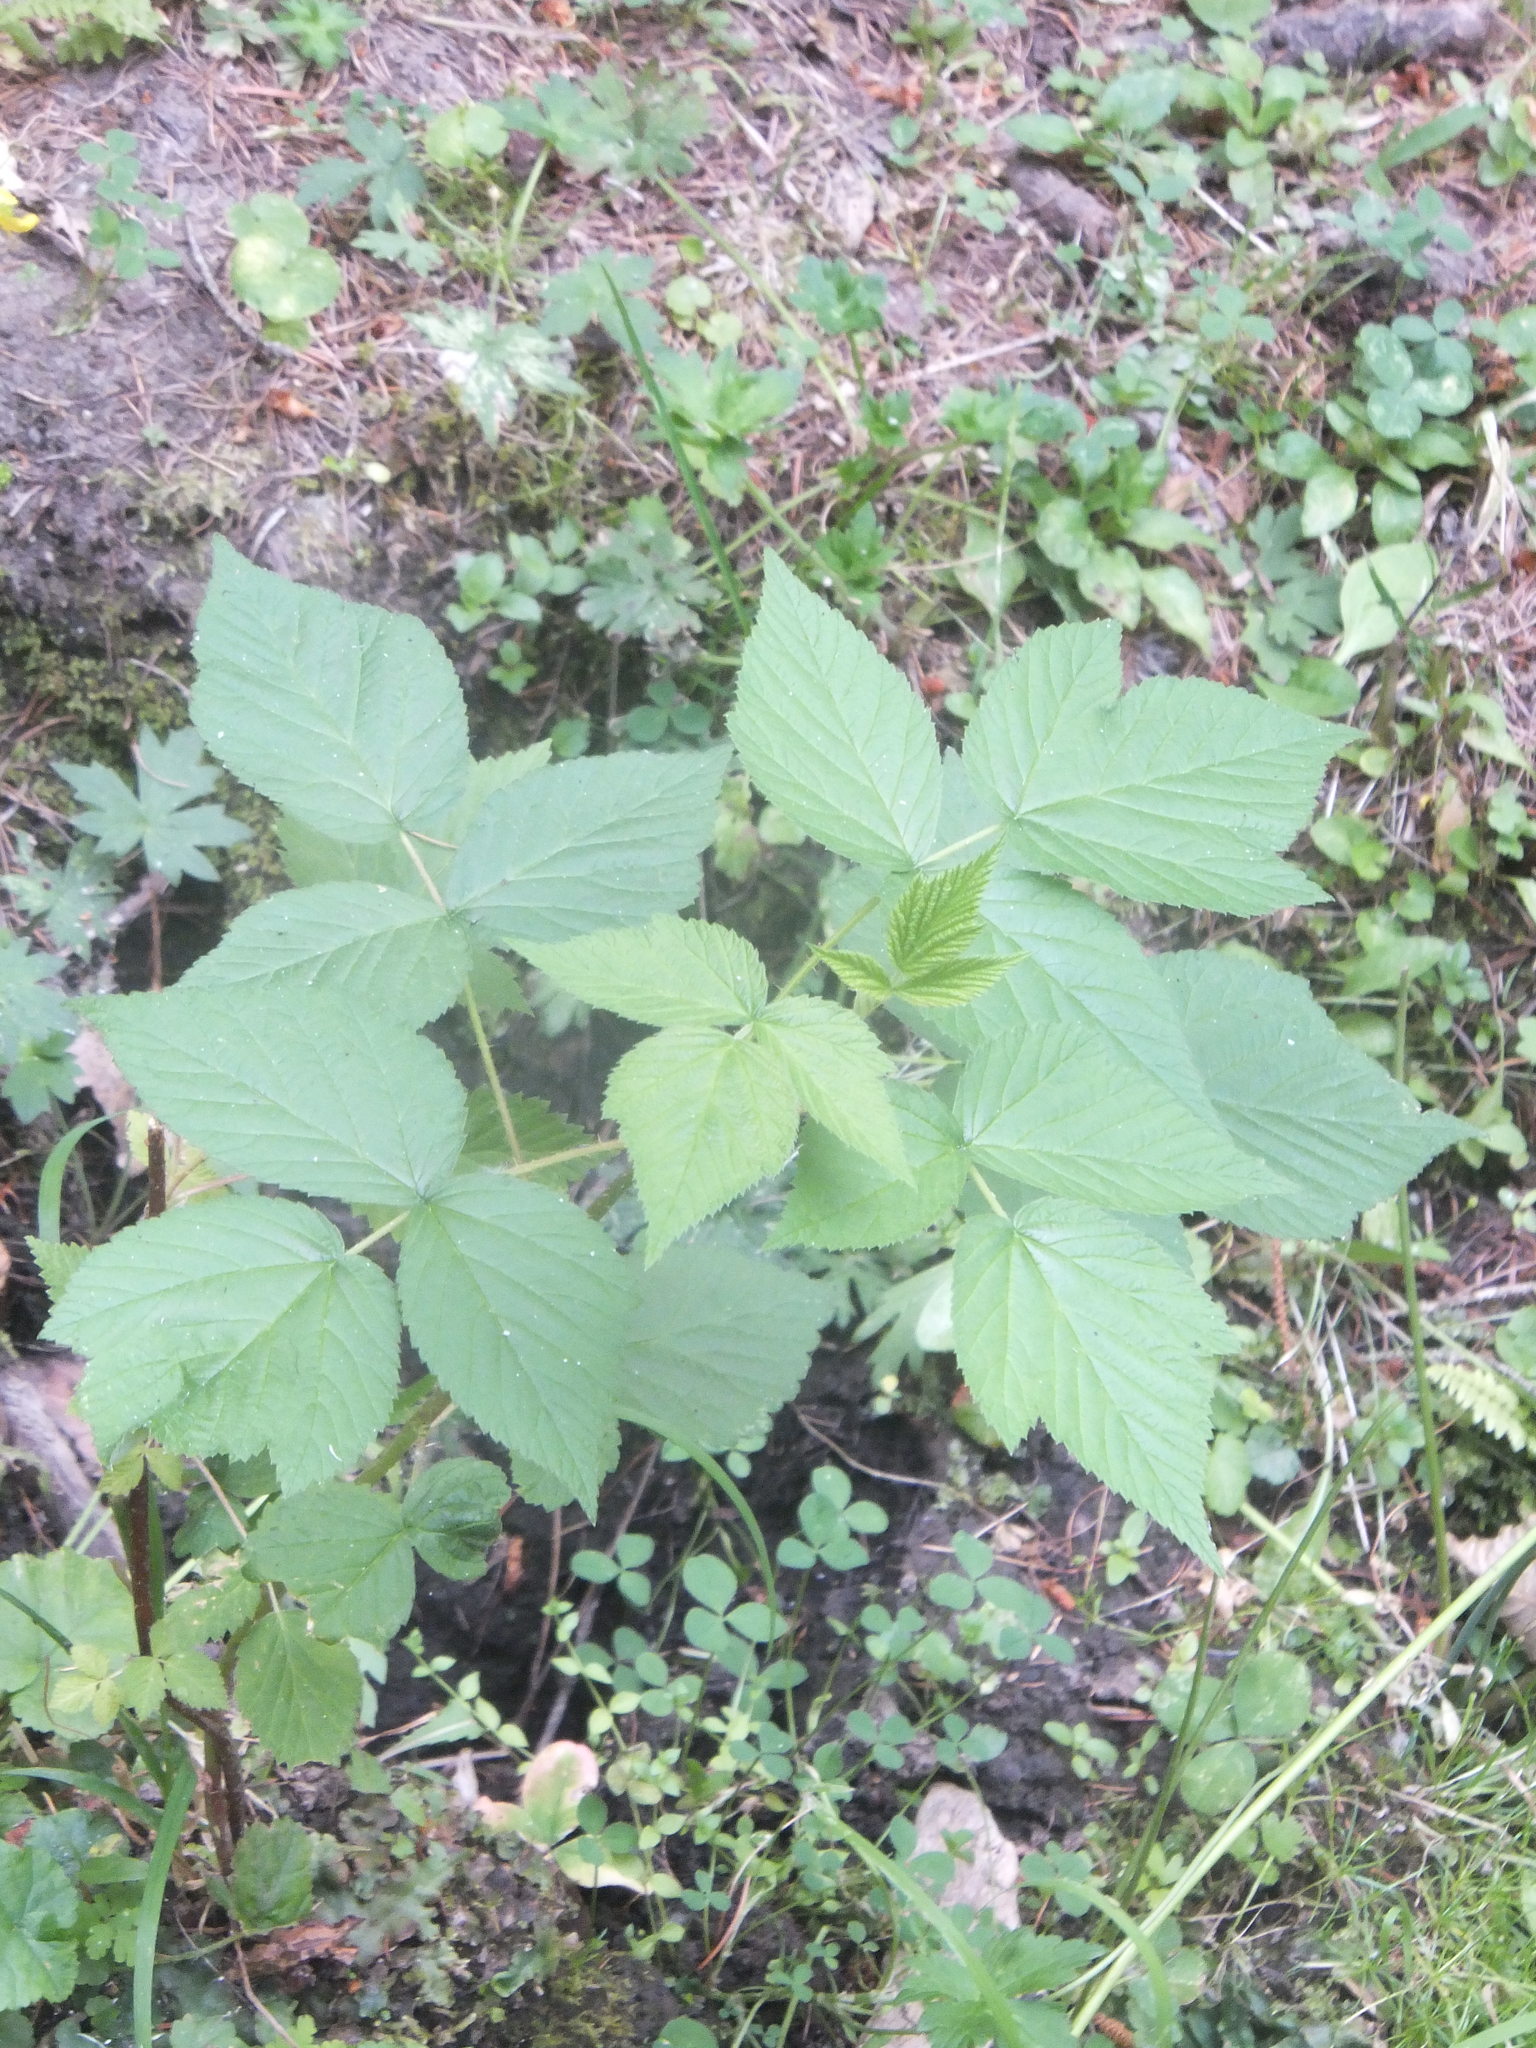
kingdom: Plantae
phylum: Tracheophyta
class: Magnoliopsida
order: Rosales
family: Rosaceae
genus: Rubus
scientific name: Rubus idaeus
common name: Raspberry
